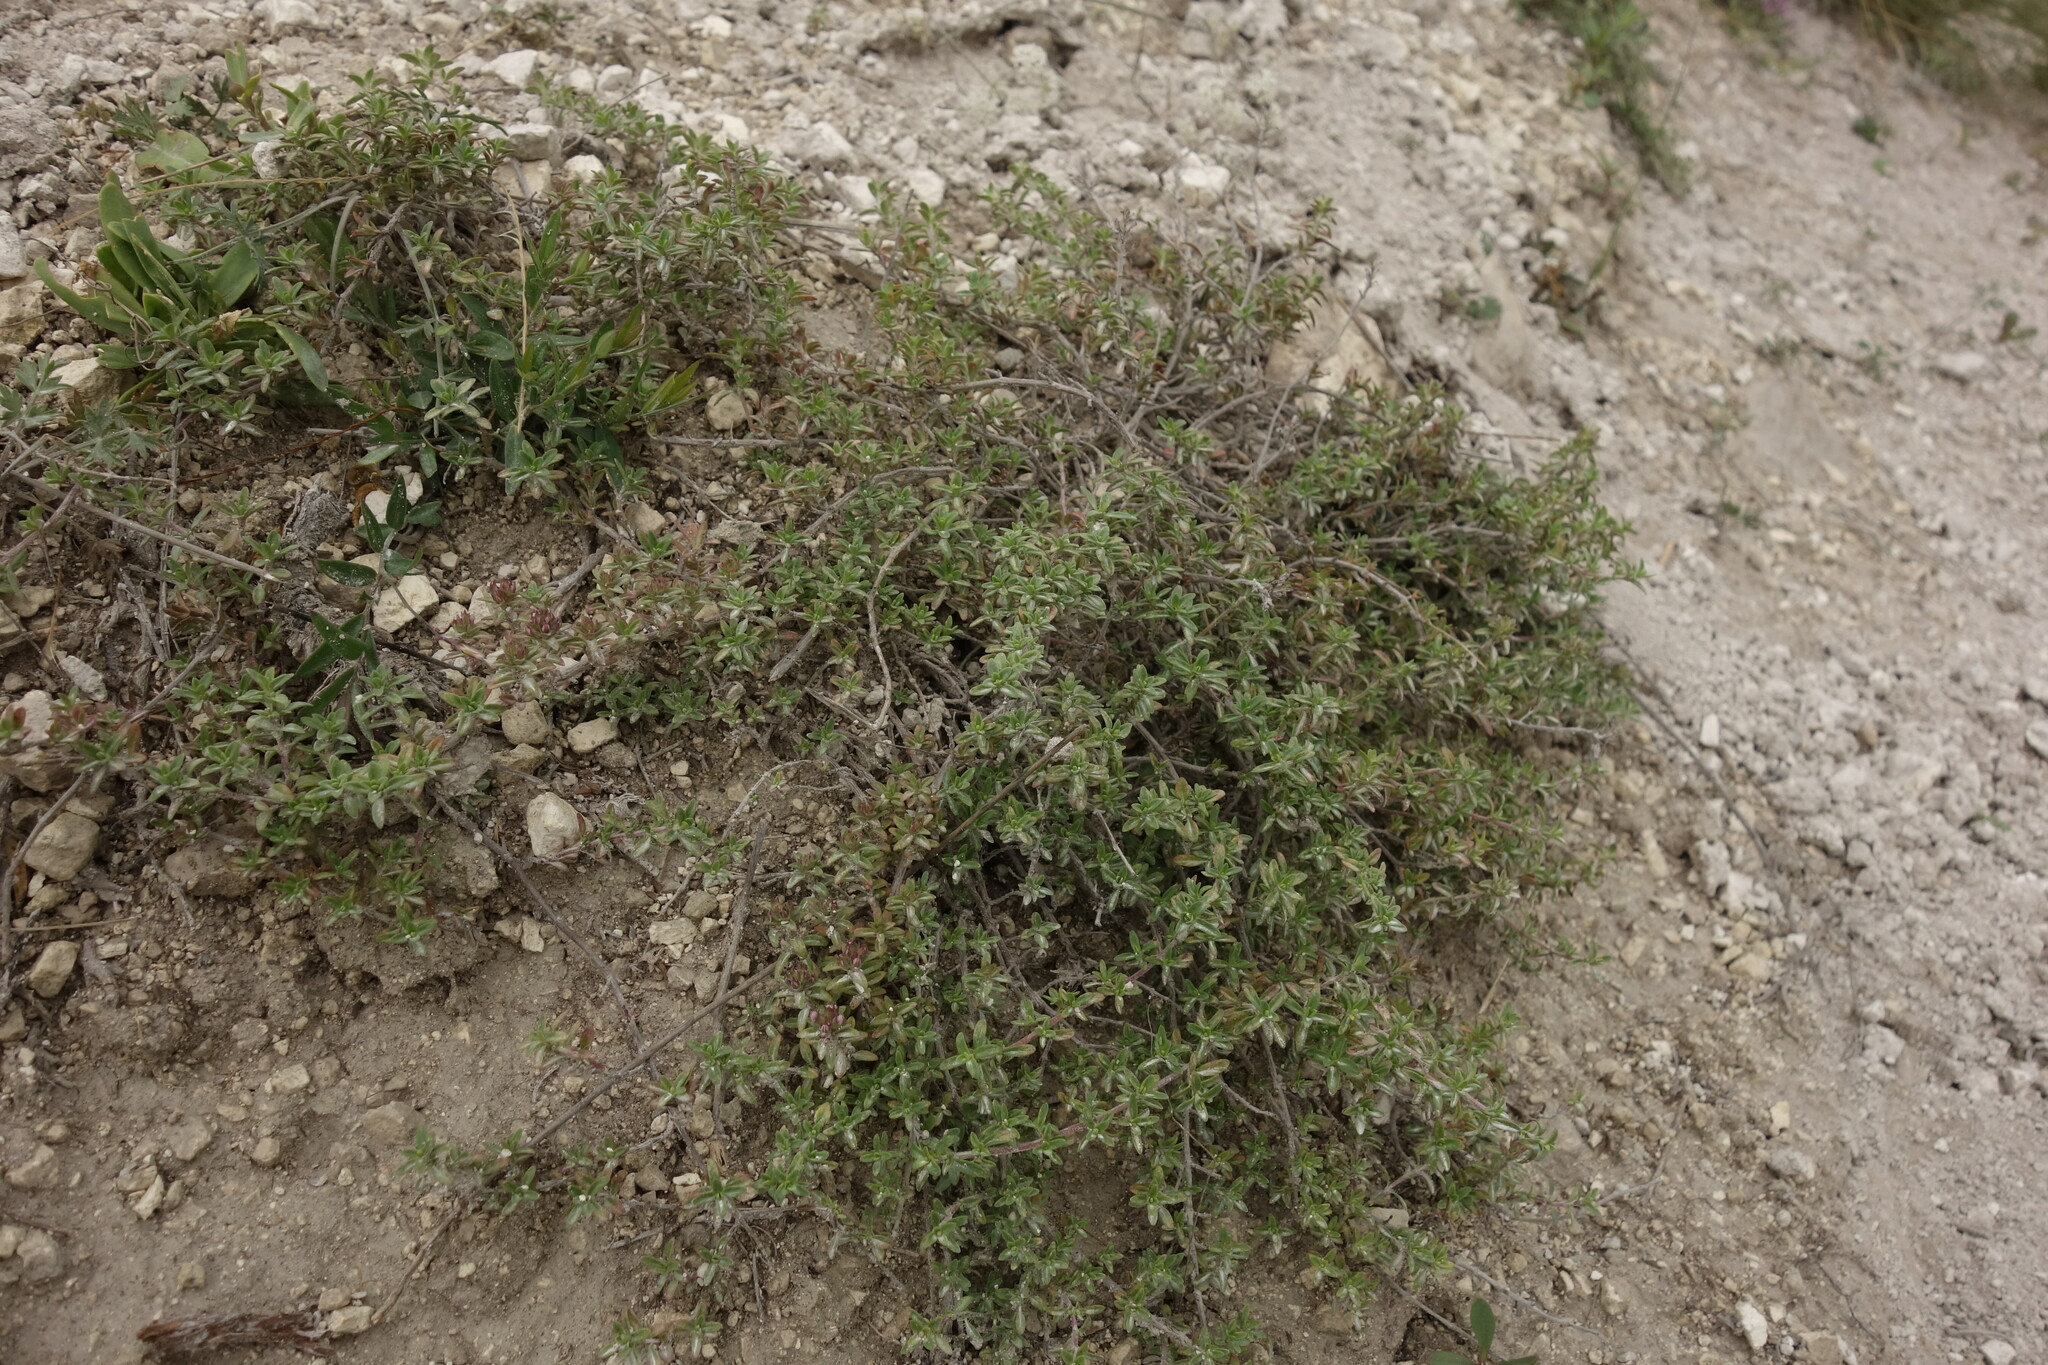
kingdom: Plantae
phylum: Tracheophyta
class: Magnoliopsida
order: Lamiales
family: Lamiaceae
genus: Thymus
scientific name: Thymus calcareus
